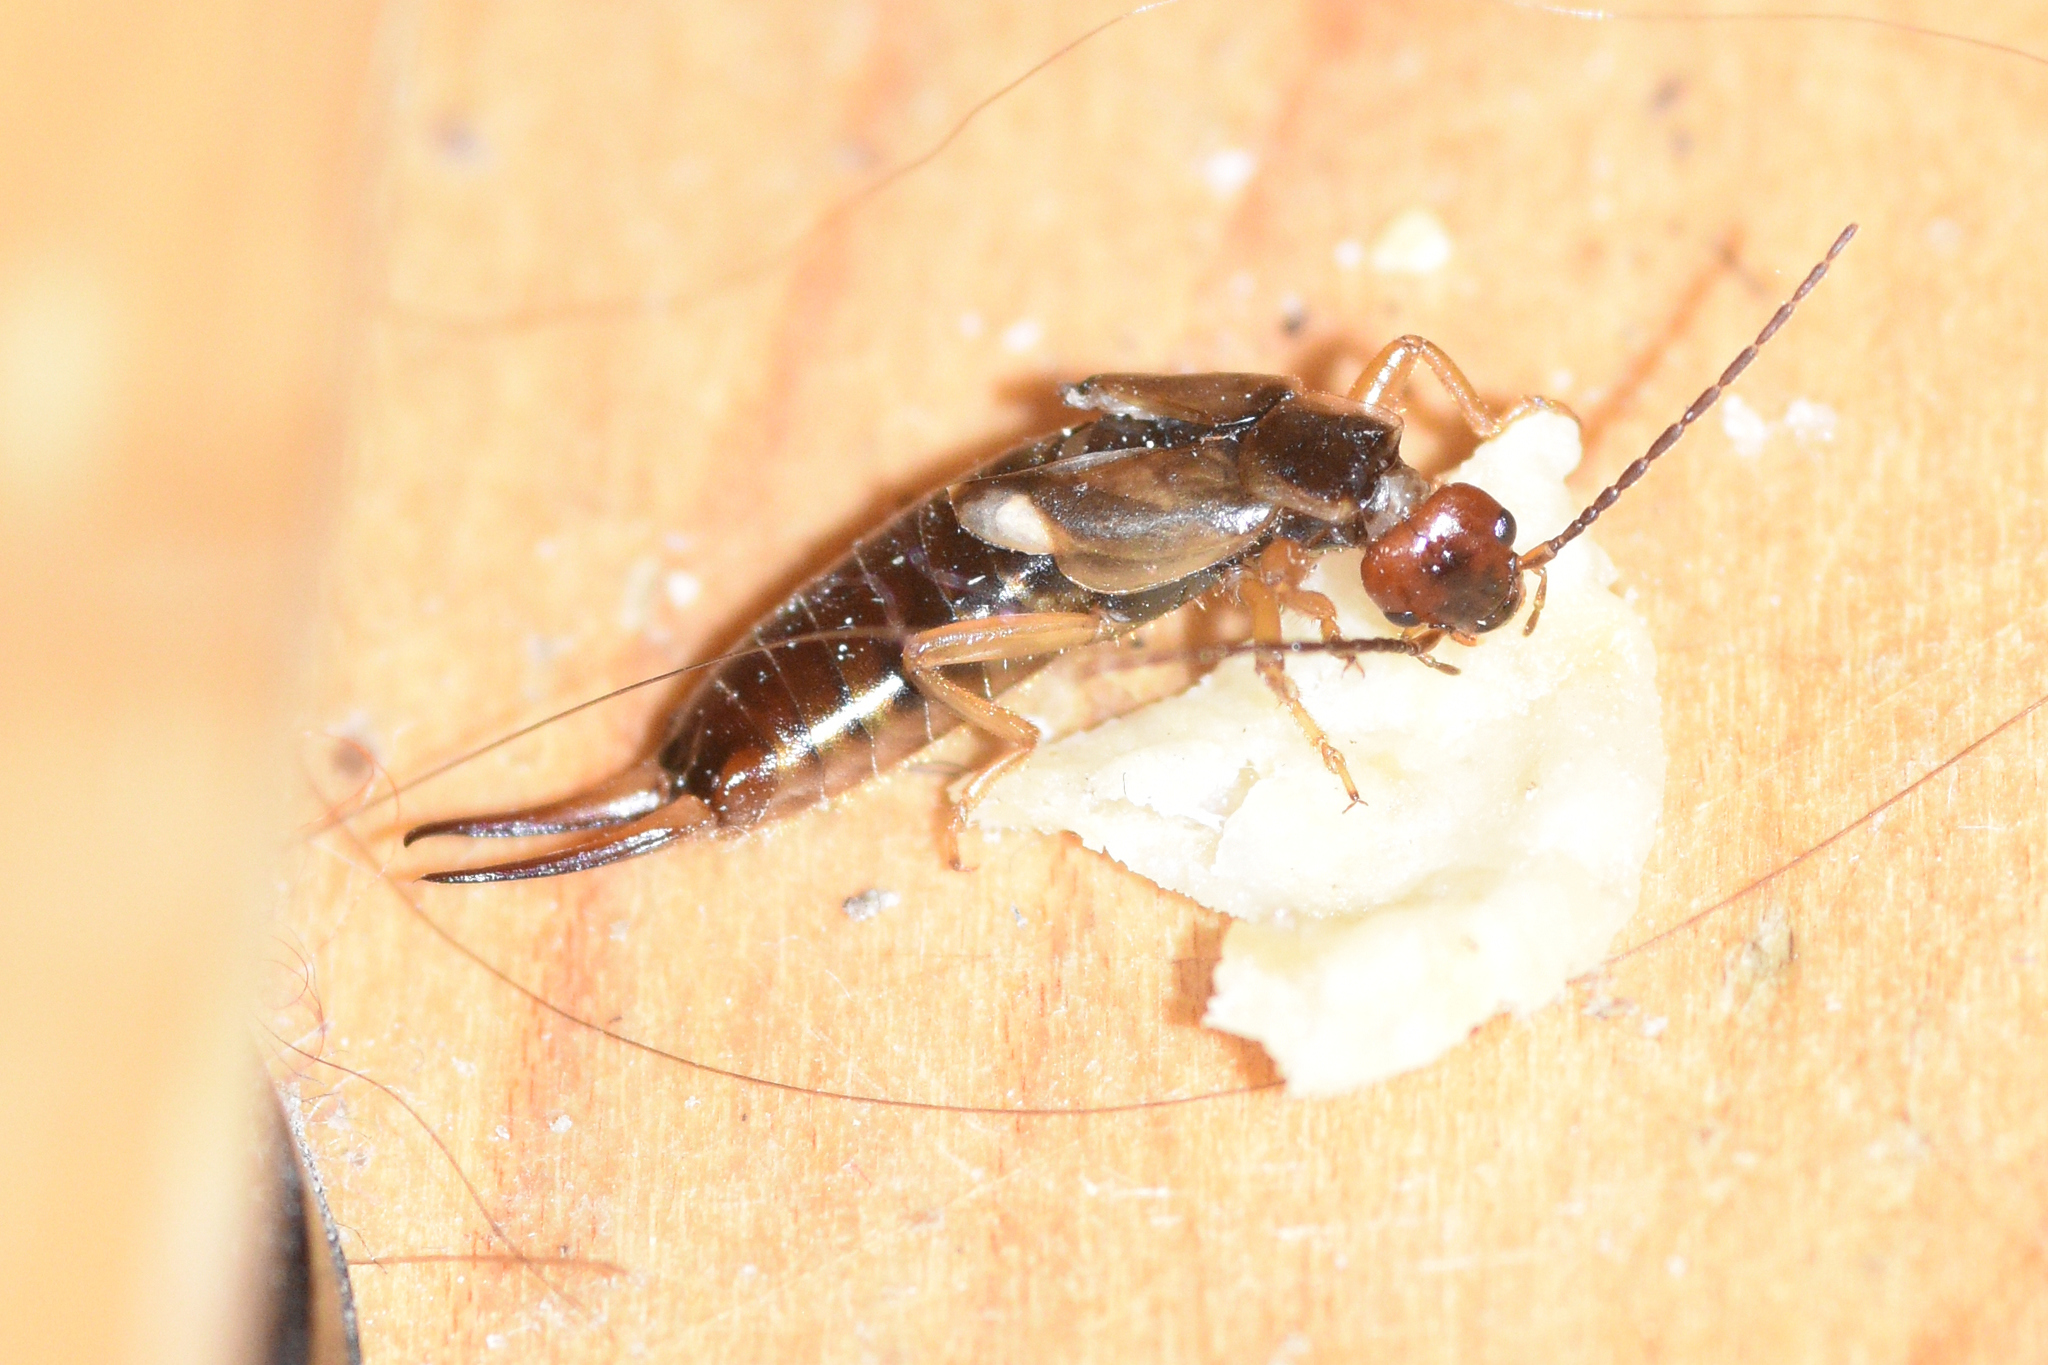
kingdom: Animalia
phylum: Arthropoda
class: Insecta
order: Dermaptera
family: Forficulidae
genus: Forficula
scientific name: Forficula
